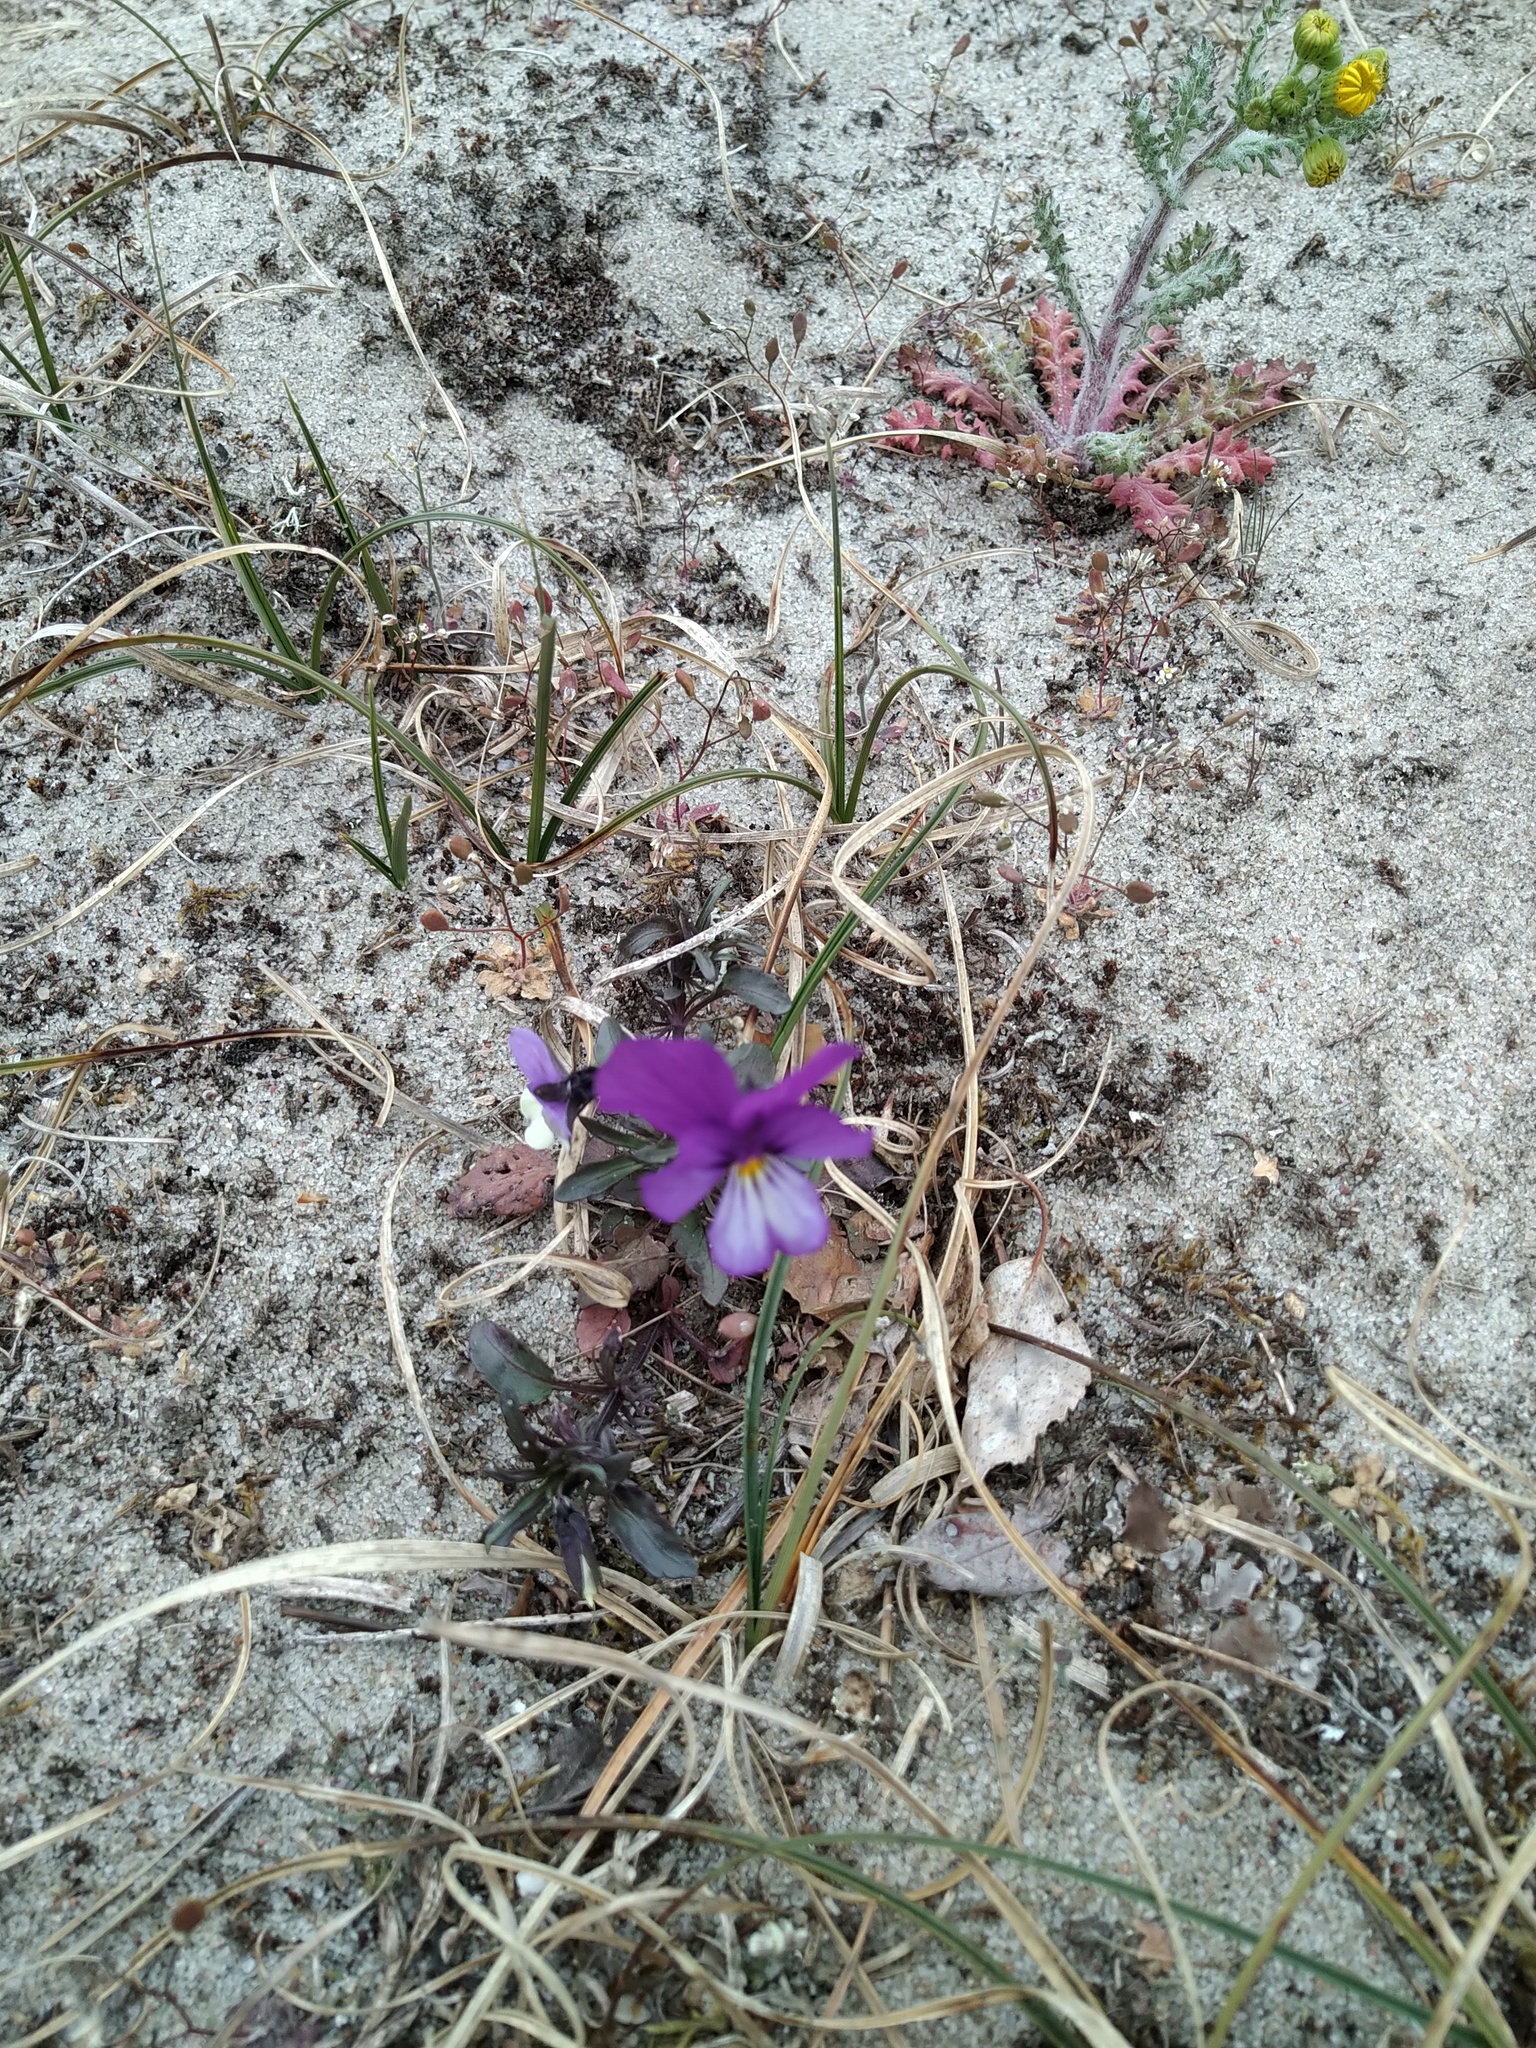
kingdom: Plantae
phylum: Tracheophyta
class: Magnoliopsida
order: Malpighiales
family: Violaceae
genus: Viola
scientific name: Viola tricolor
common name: Pansy
